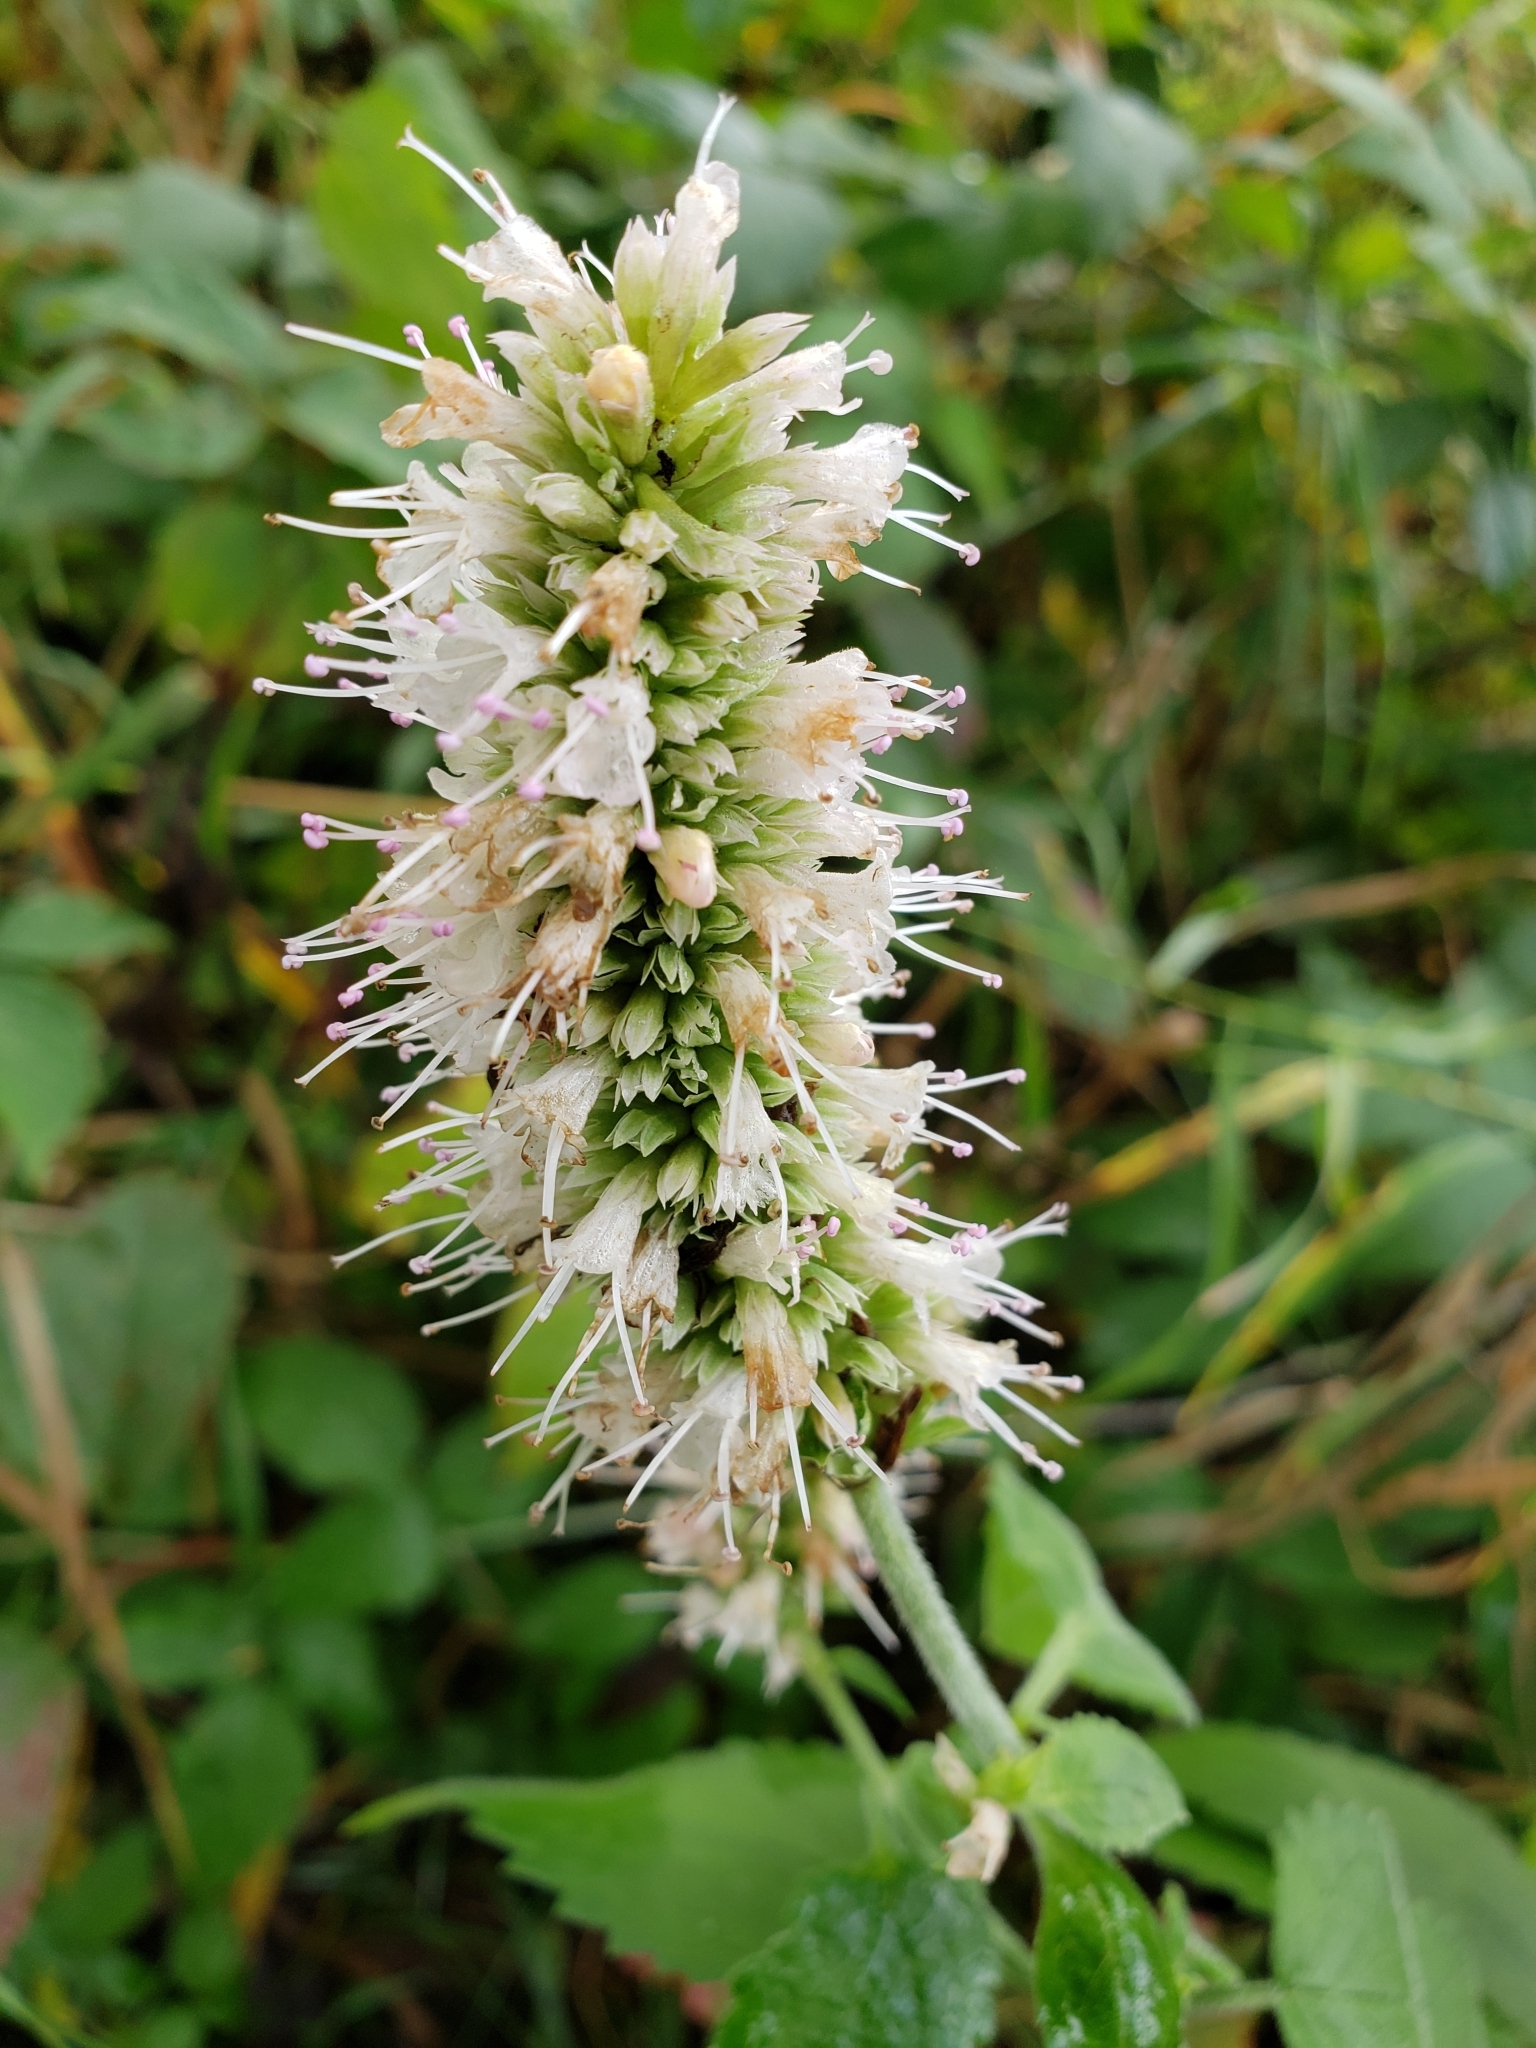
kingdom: Plantae
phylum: Tracheophyta
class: Magnoliopsida
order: Lamiales
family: Lamiaceae
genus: Agastache
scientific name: Agastache scrophulariifolia
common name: Figwort giant hyssop
